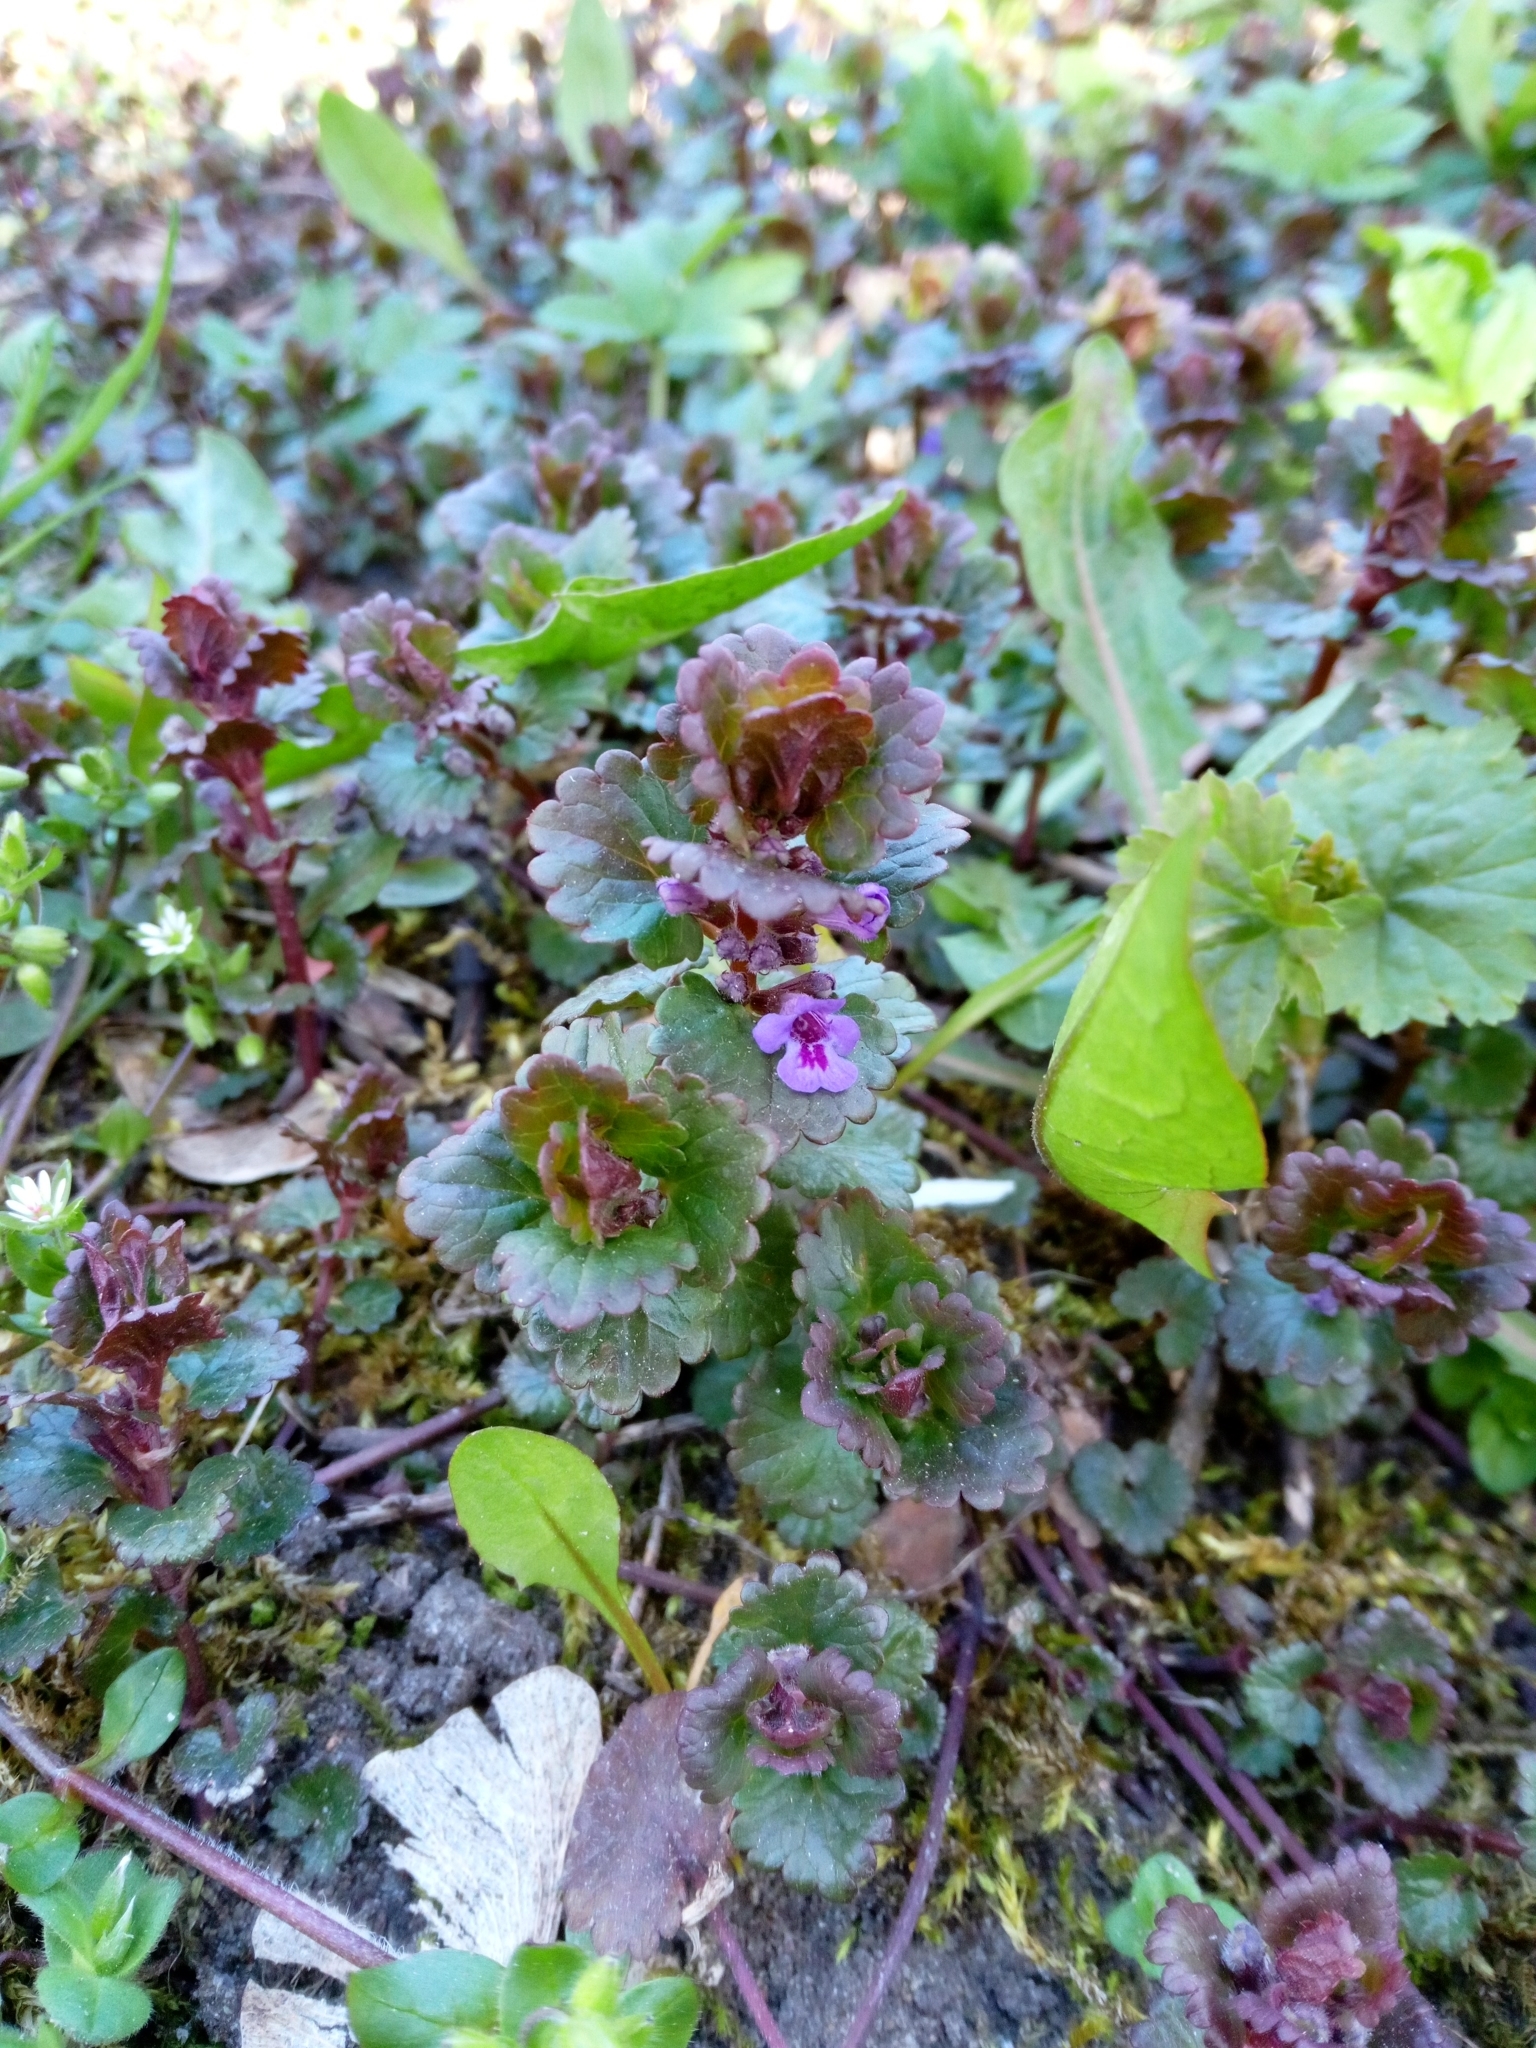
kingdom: Plantae
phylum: Tracheophyta
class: Magnoliopsida
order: Lamiales
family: Lamiaceae
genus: Glechoma
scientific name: Glechoma hederacea
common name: Ground ivy
